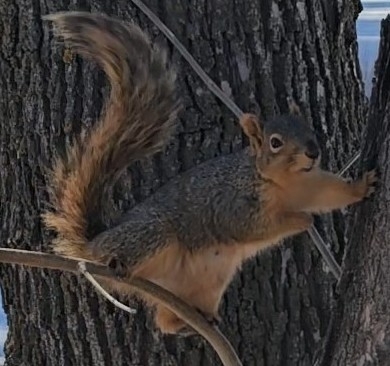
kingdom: Animalia
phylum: Chordata
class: Mammalia
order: Rodentia
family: Sciuridae
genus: Sciurus
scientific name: Sciurus niger
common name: Fox squirrel
